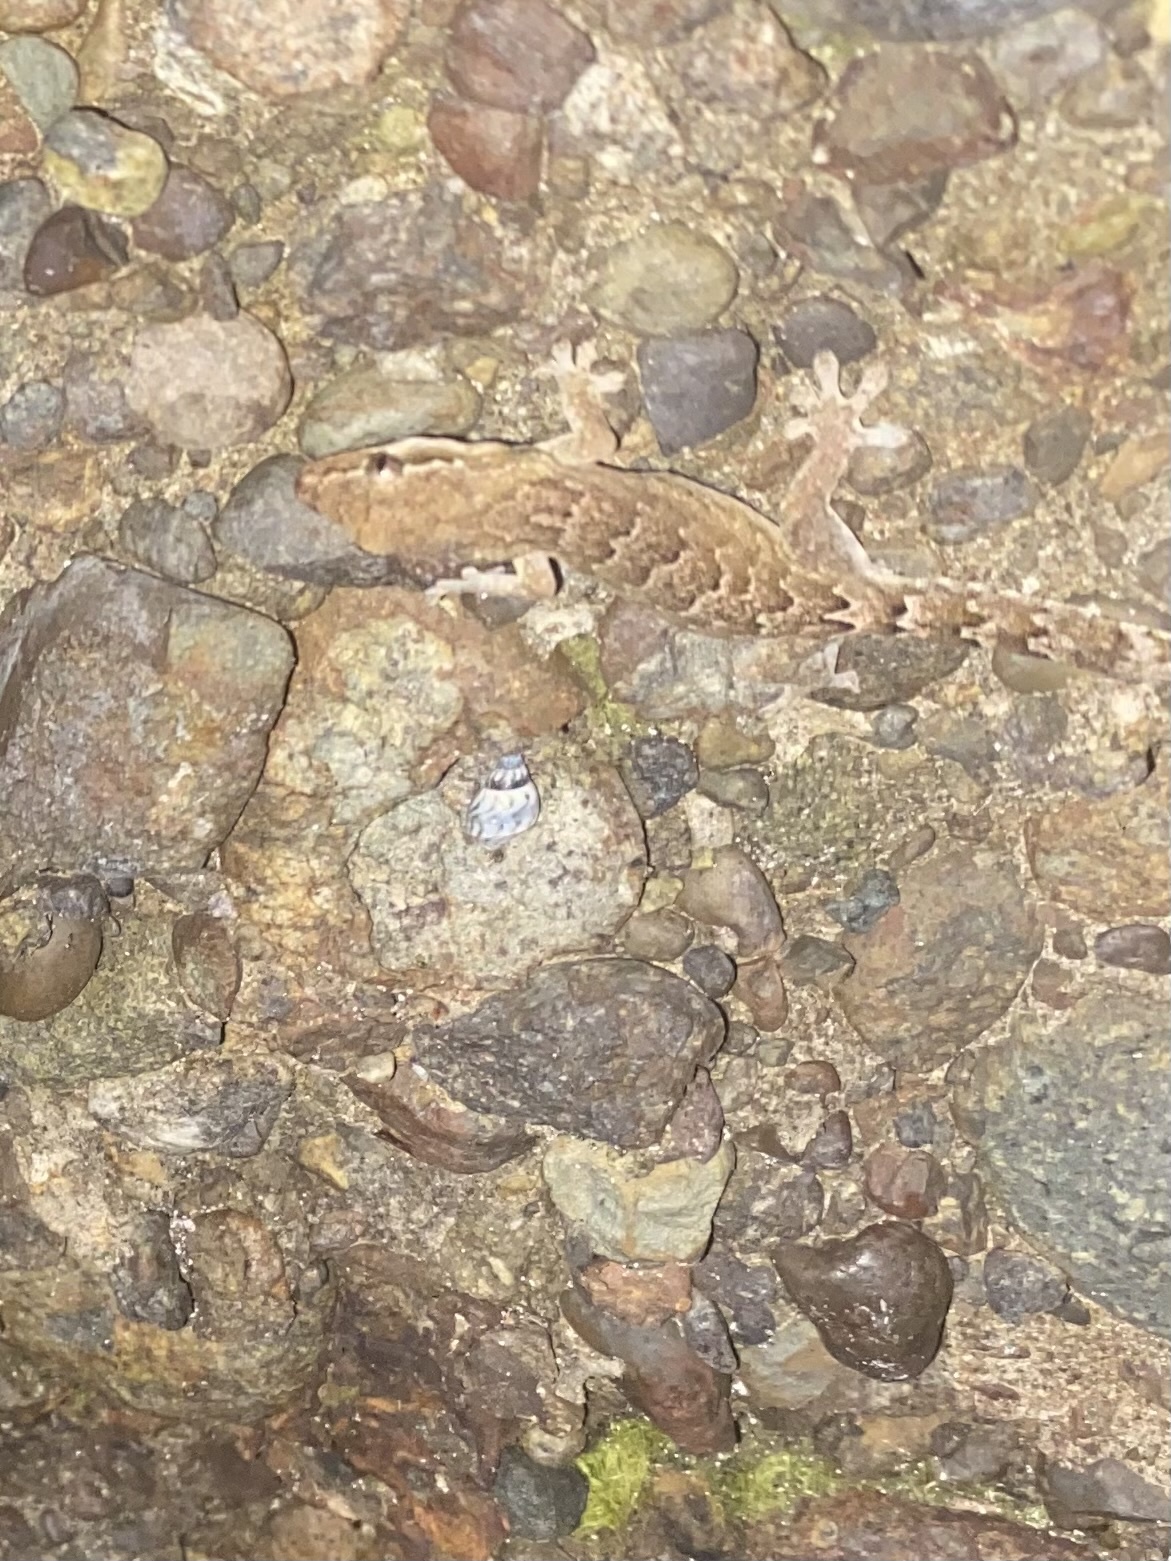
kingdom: Animalia
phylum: Chordata
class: Squamata
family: Gekkonidae
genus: Lepidodactylus
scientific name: Lepidodactylus lugubris
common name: Mourning gecko
